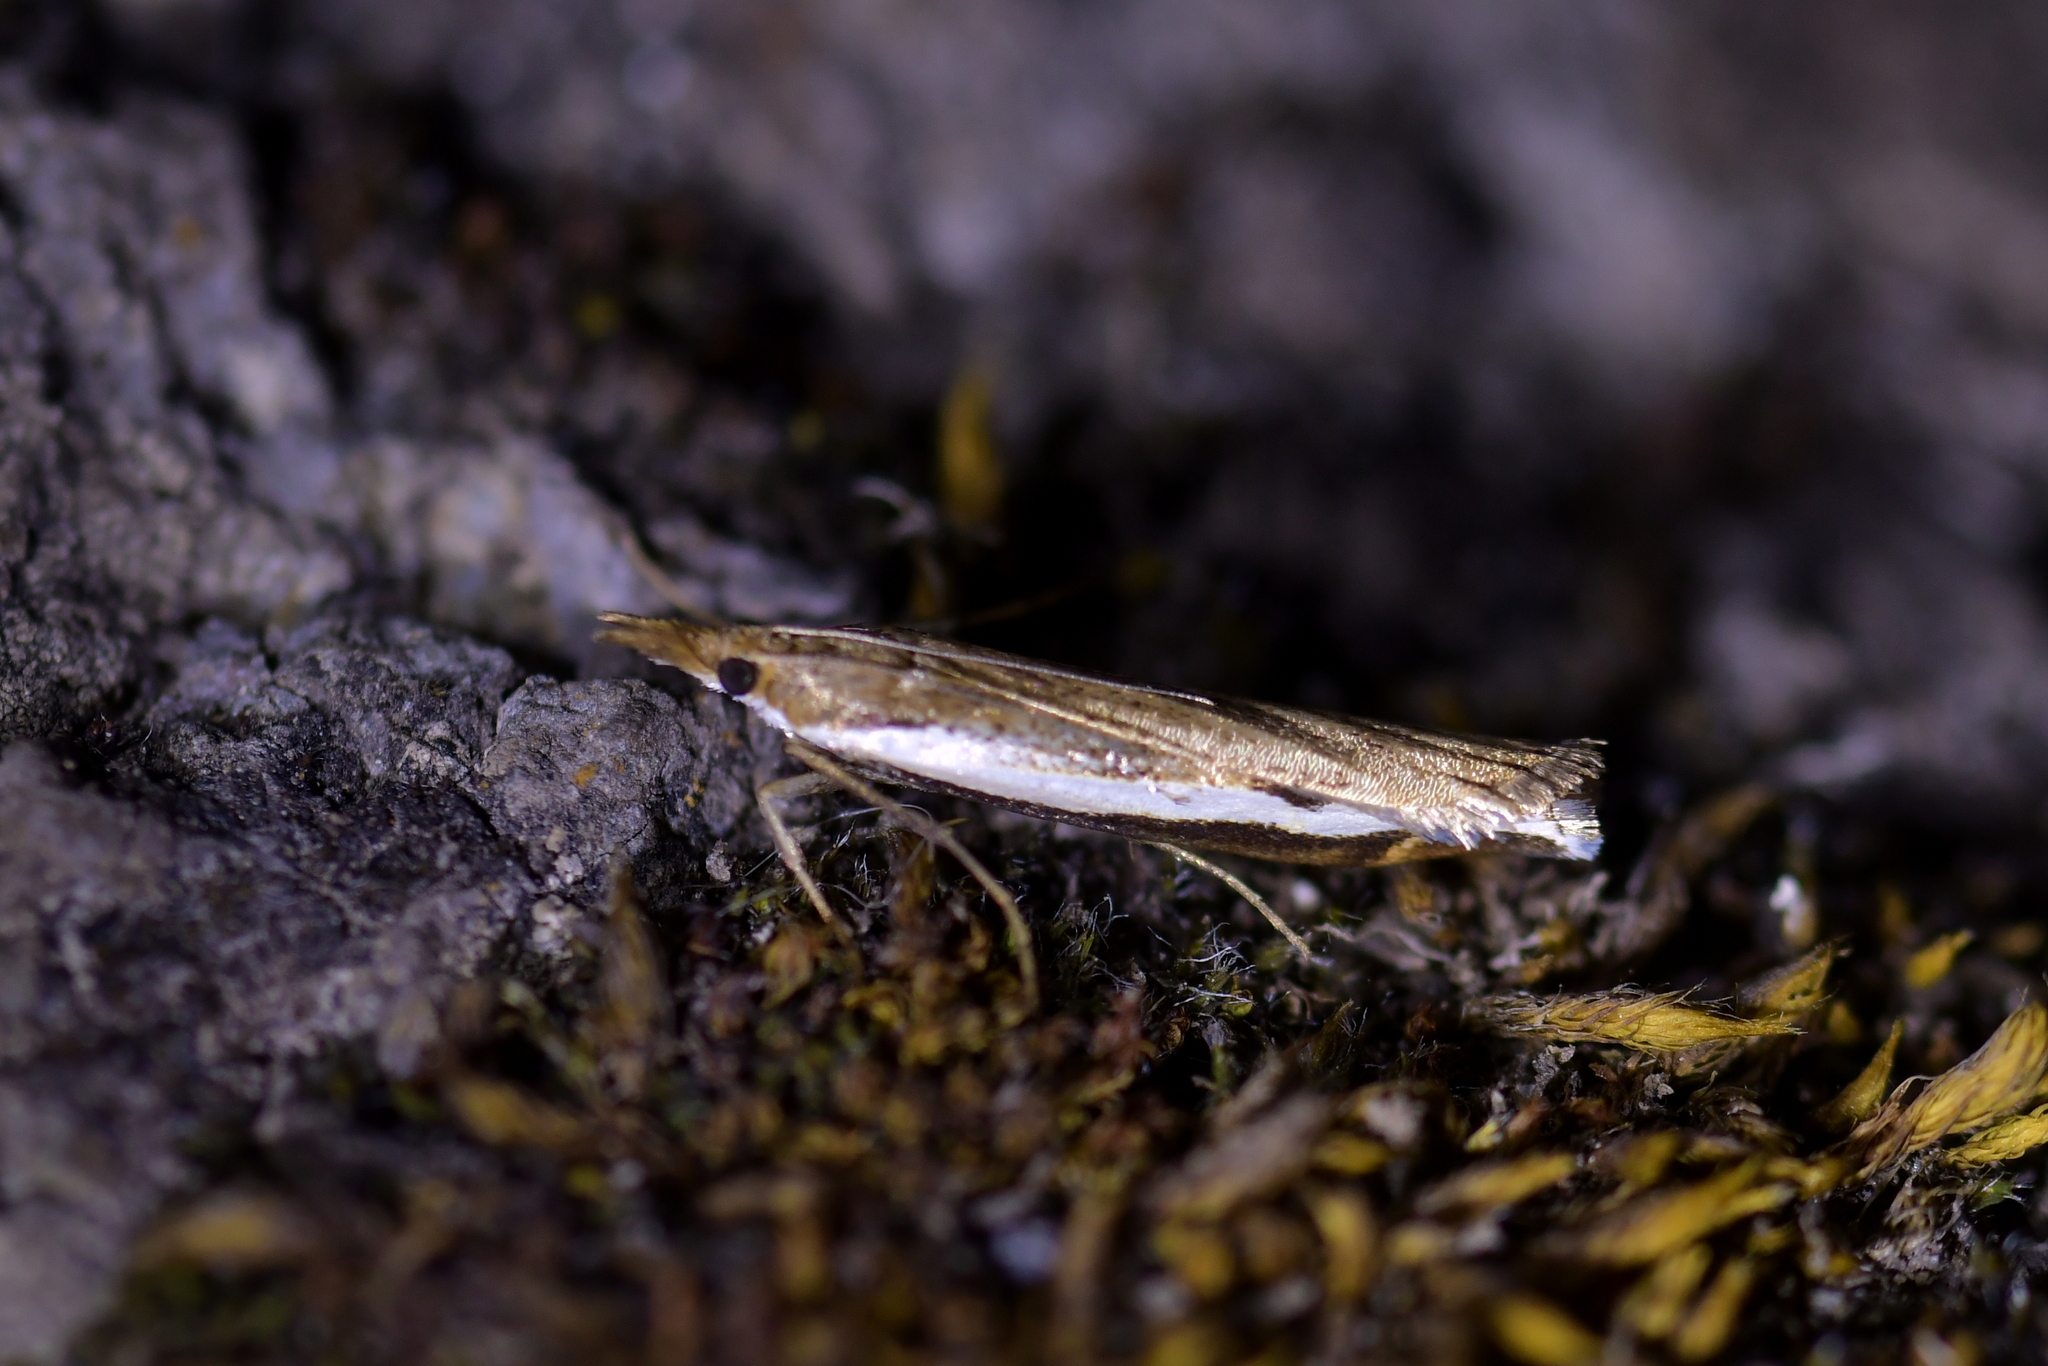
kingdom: Animalia
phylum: Arthropoda
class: Insecta
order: Lepidoptera
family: Crambidae
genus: Orocrambus
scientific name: Orocrambus flexuosellus
